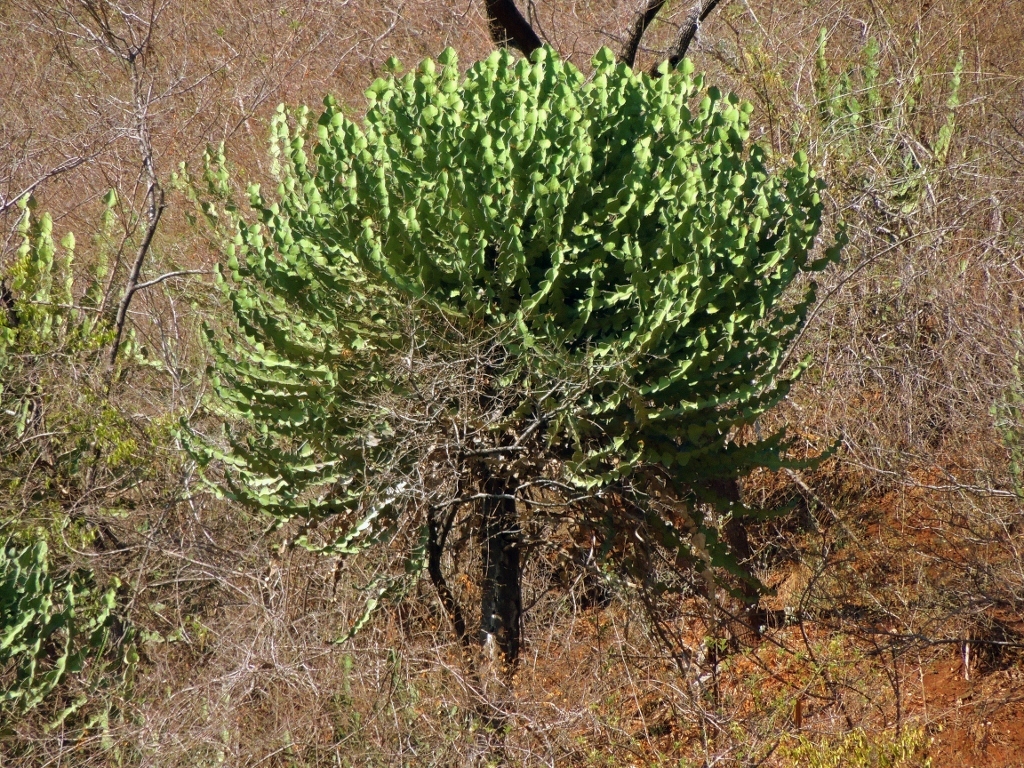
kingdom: Plantae
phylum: Tracheophyta
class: Magnoliopsida
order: Malpighiales
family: Euphorbiaceae
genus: Euphorbia
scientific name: Euphorbia cooperi
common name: Candelabra tree
